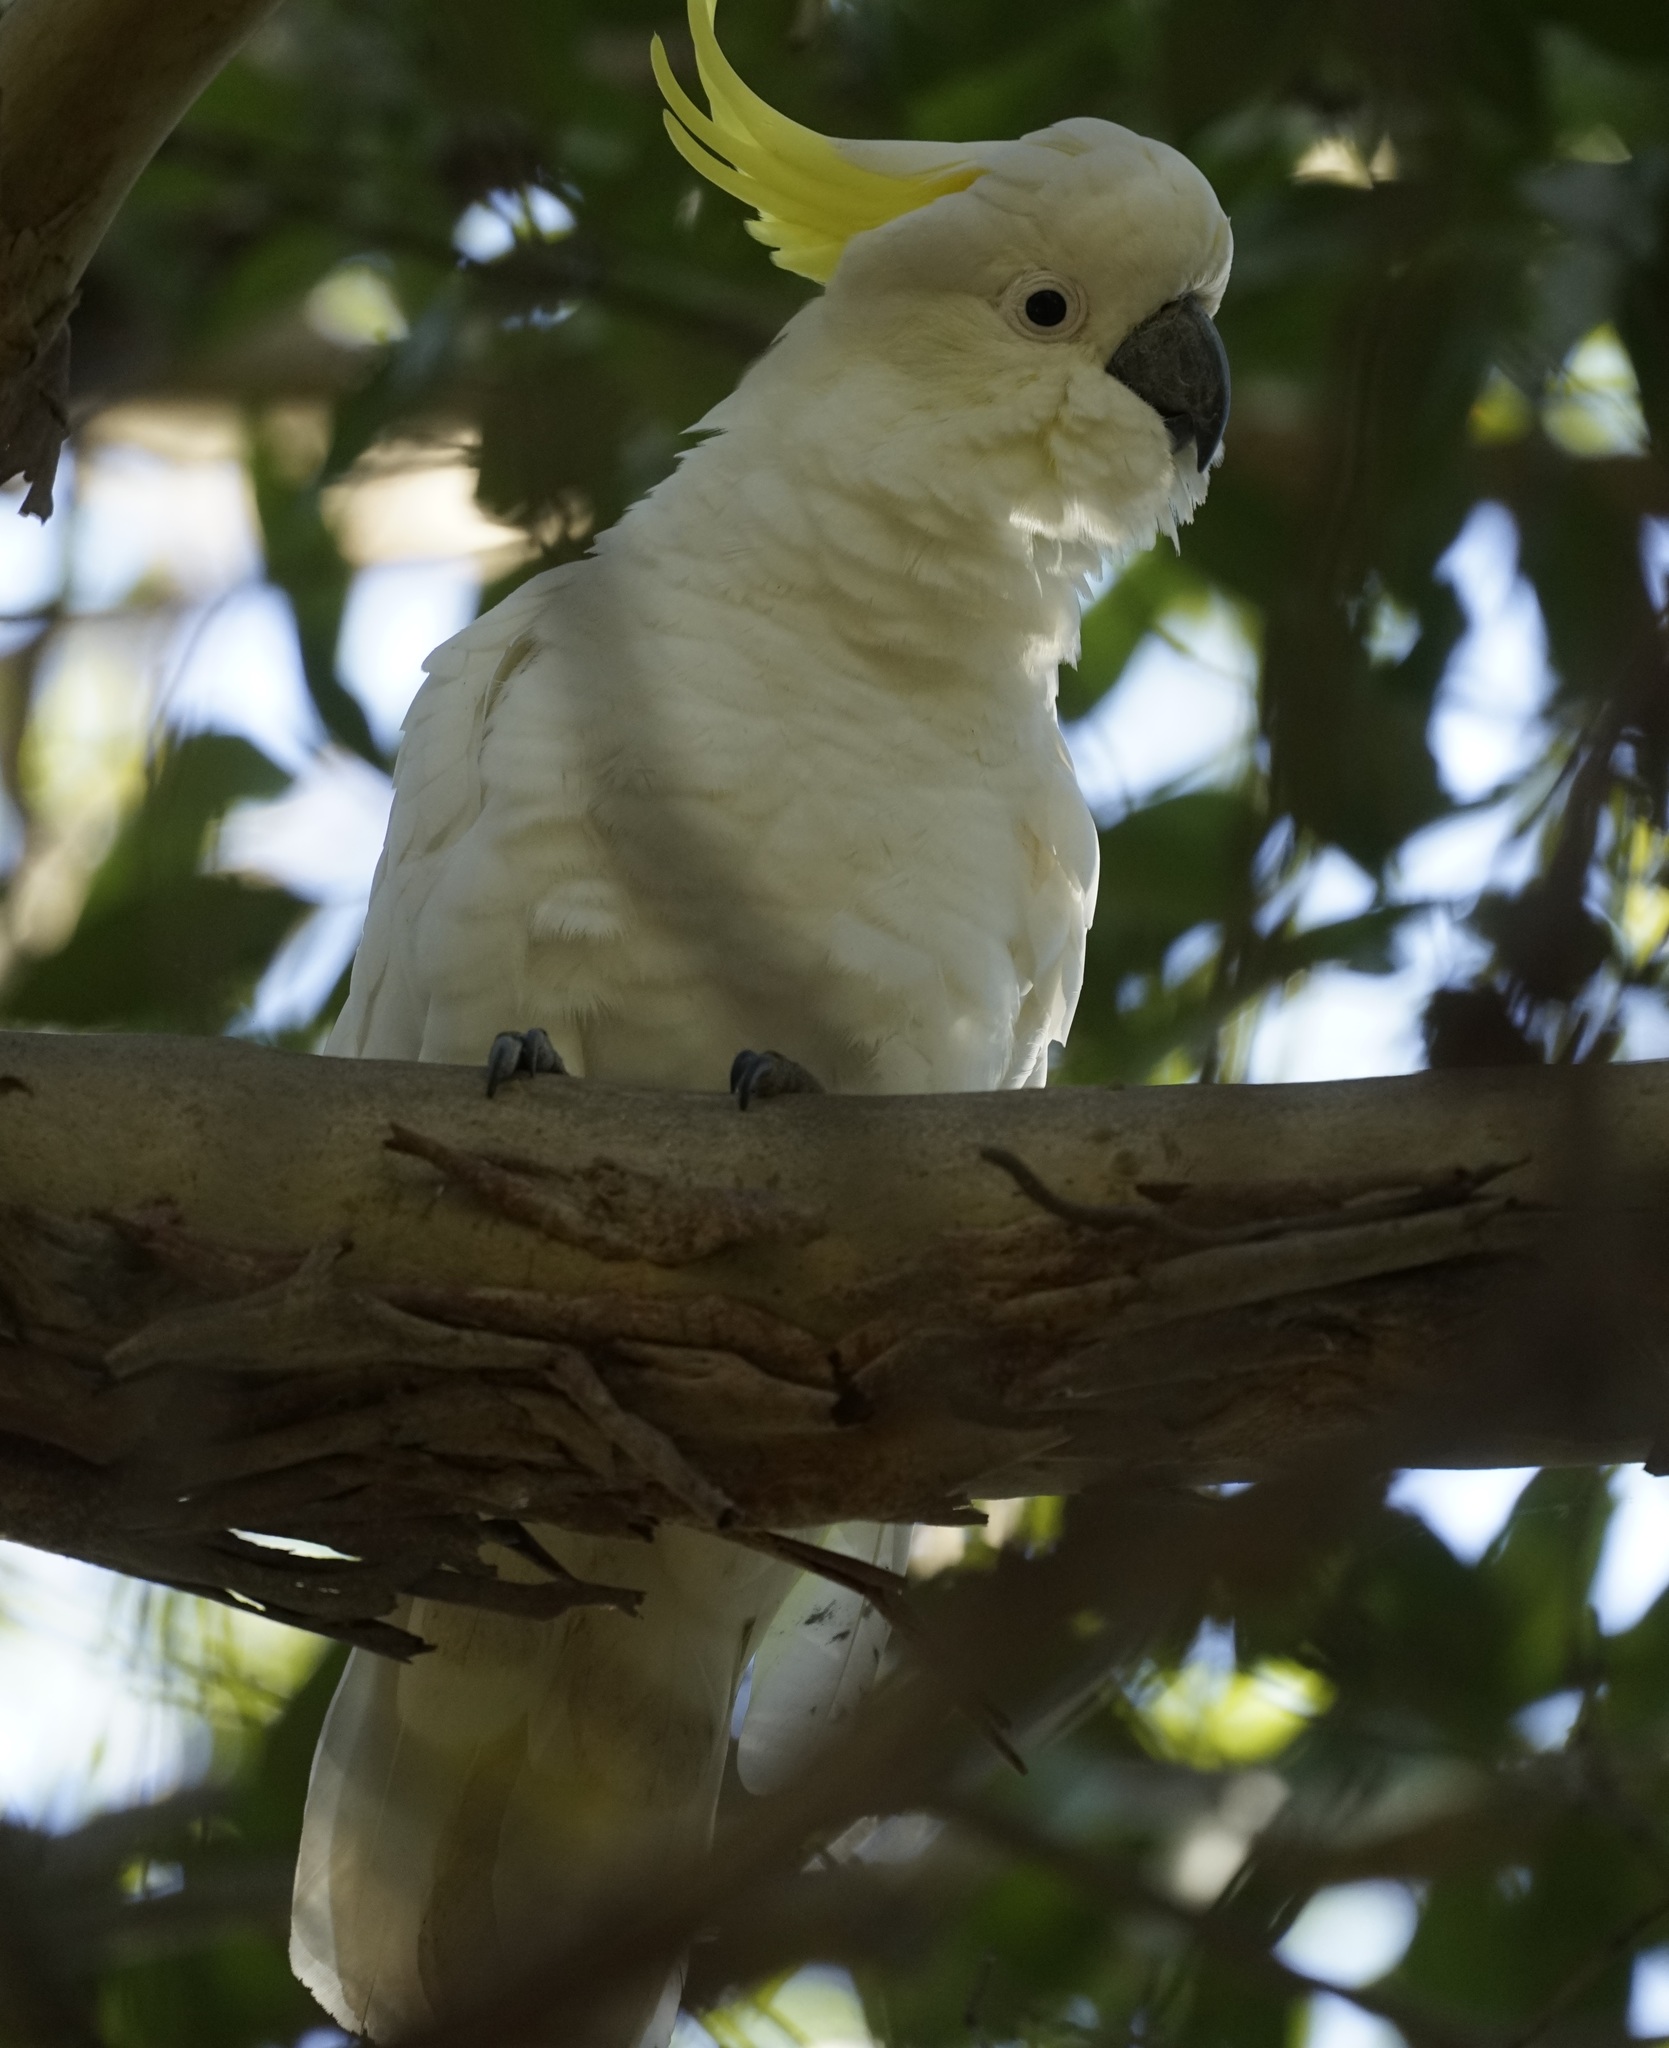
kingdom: Animalia
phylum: Chordata
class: Aves
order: Psittaciformes
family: Psittacidae
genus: Cacatua
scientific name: Cacatua galerita
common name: Sulphur-crested cockatoo
